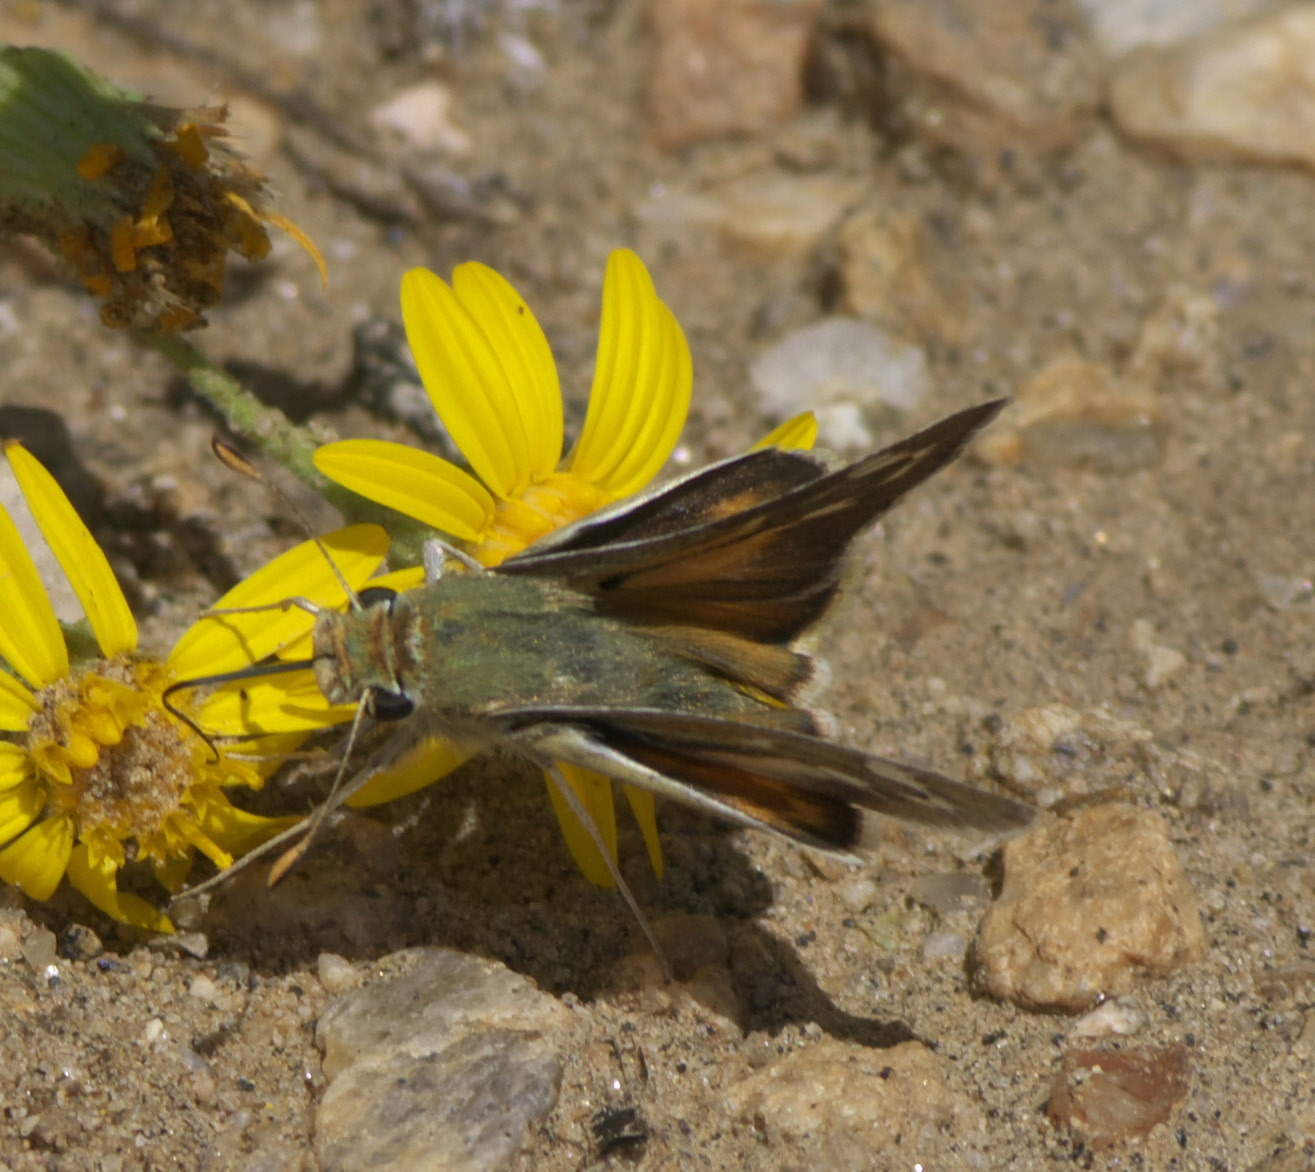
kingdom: Animalia
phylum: Arthropoda
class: Insecta
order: Lepidoptera
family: Hesperiidae
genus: Hesperia
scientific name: Hesperia uncas
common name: Uncas skipper
